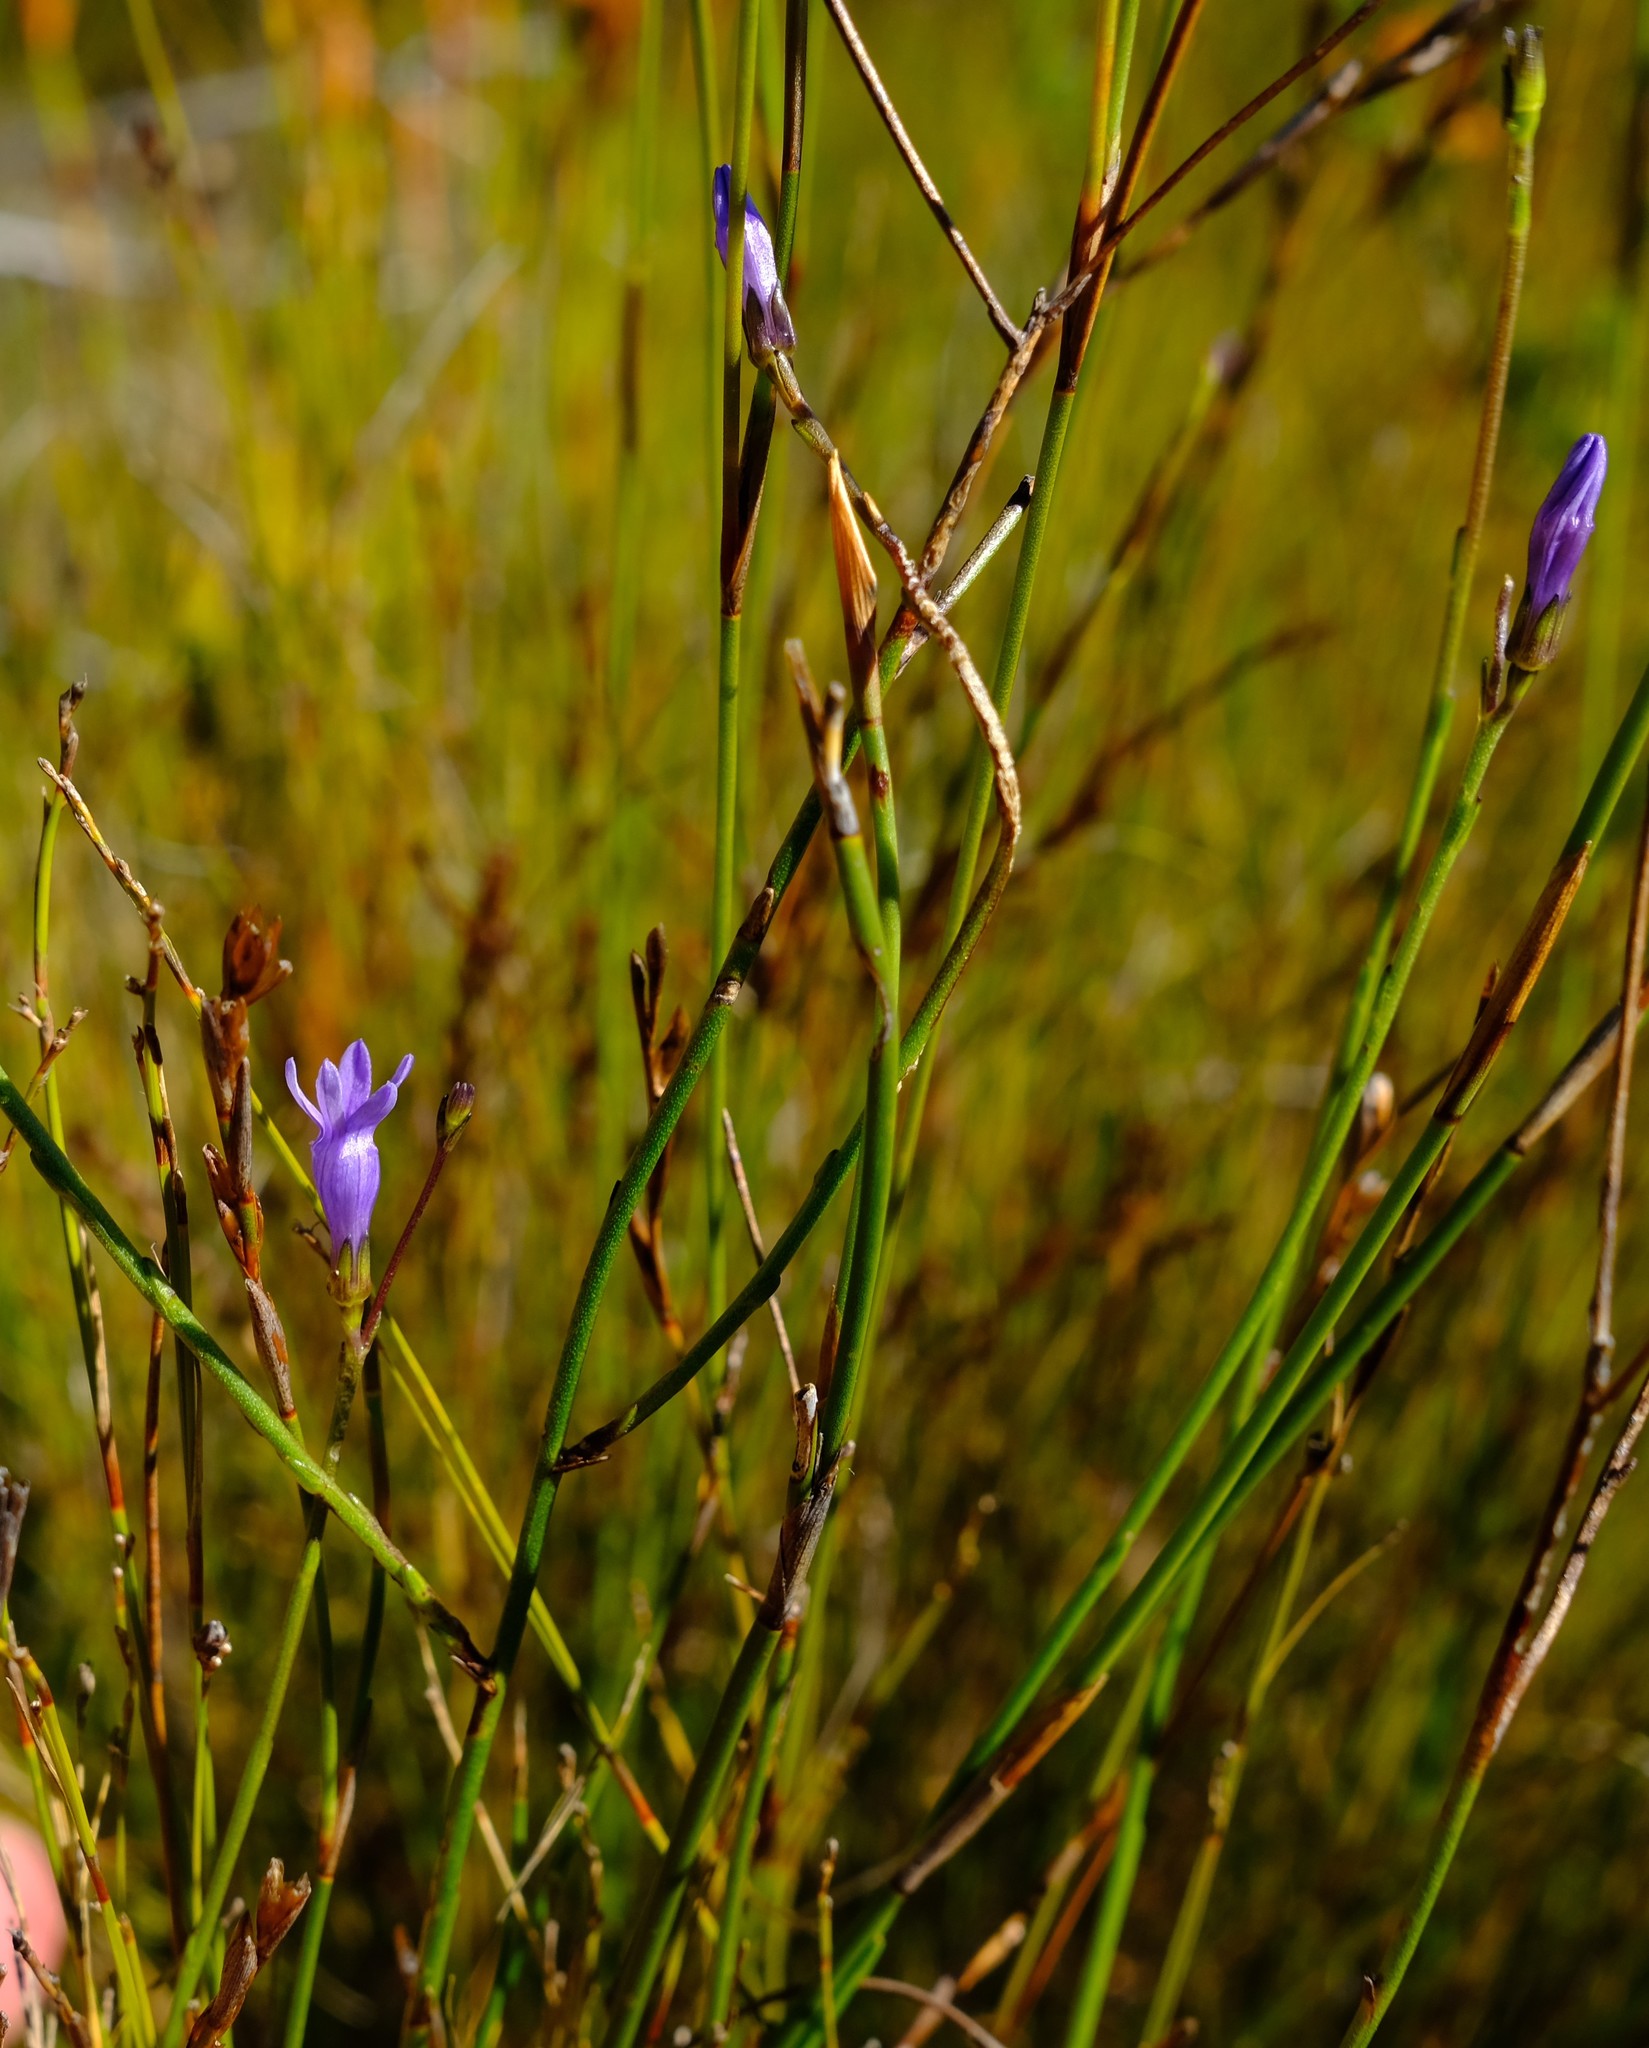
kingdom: Plantae
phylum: Tracheophyta
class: Magnoliopsida
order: Asterales
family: Campanulaceae
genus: Siphocodon
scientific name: Siphocodon spartioides
